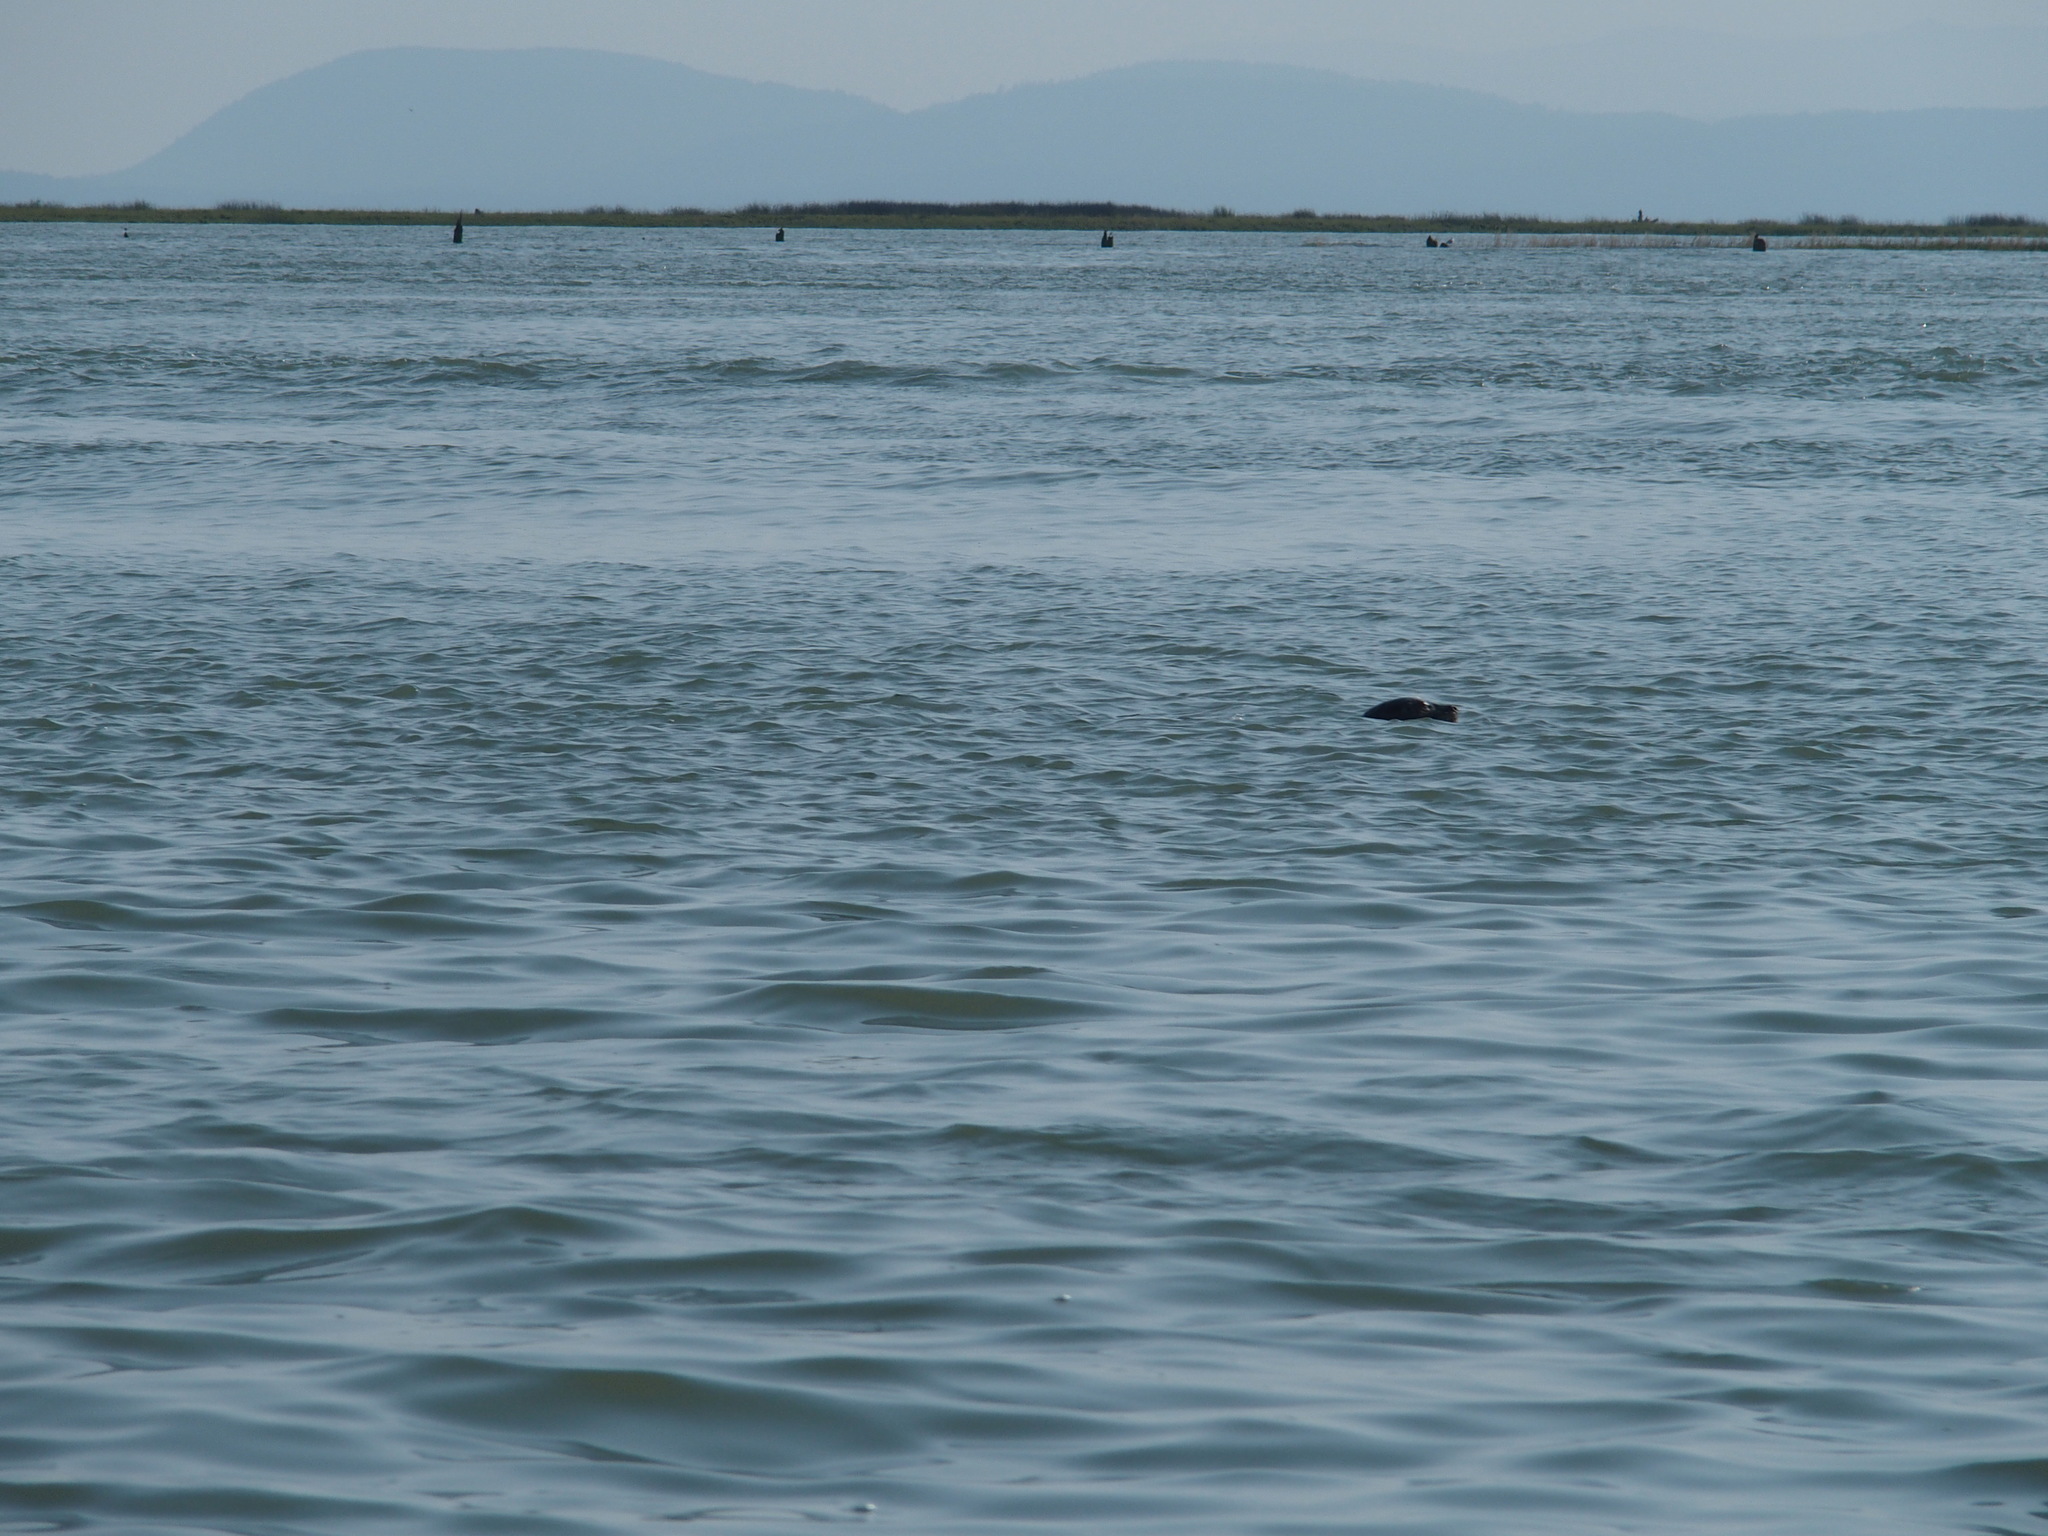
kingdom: Animalia
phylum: Chordata
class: Mammalia
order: Carnivora
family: Phocidae
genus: Phoca
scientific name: Phoca vitulina
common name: Harbor seal
